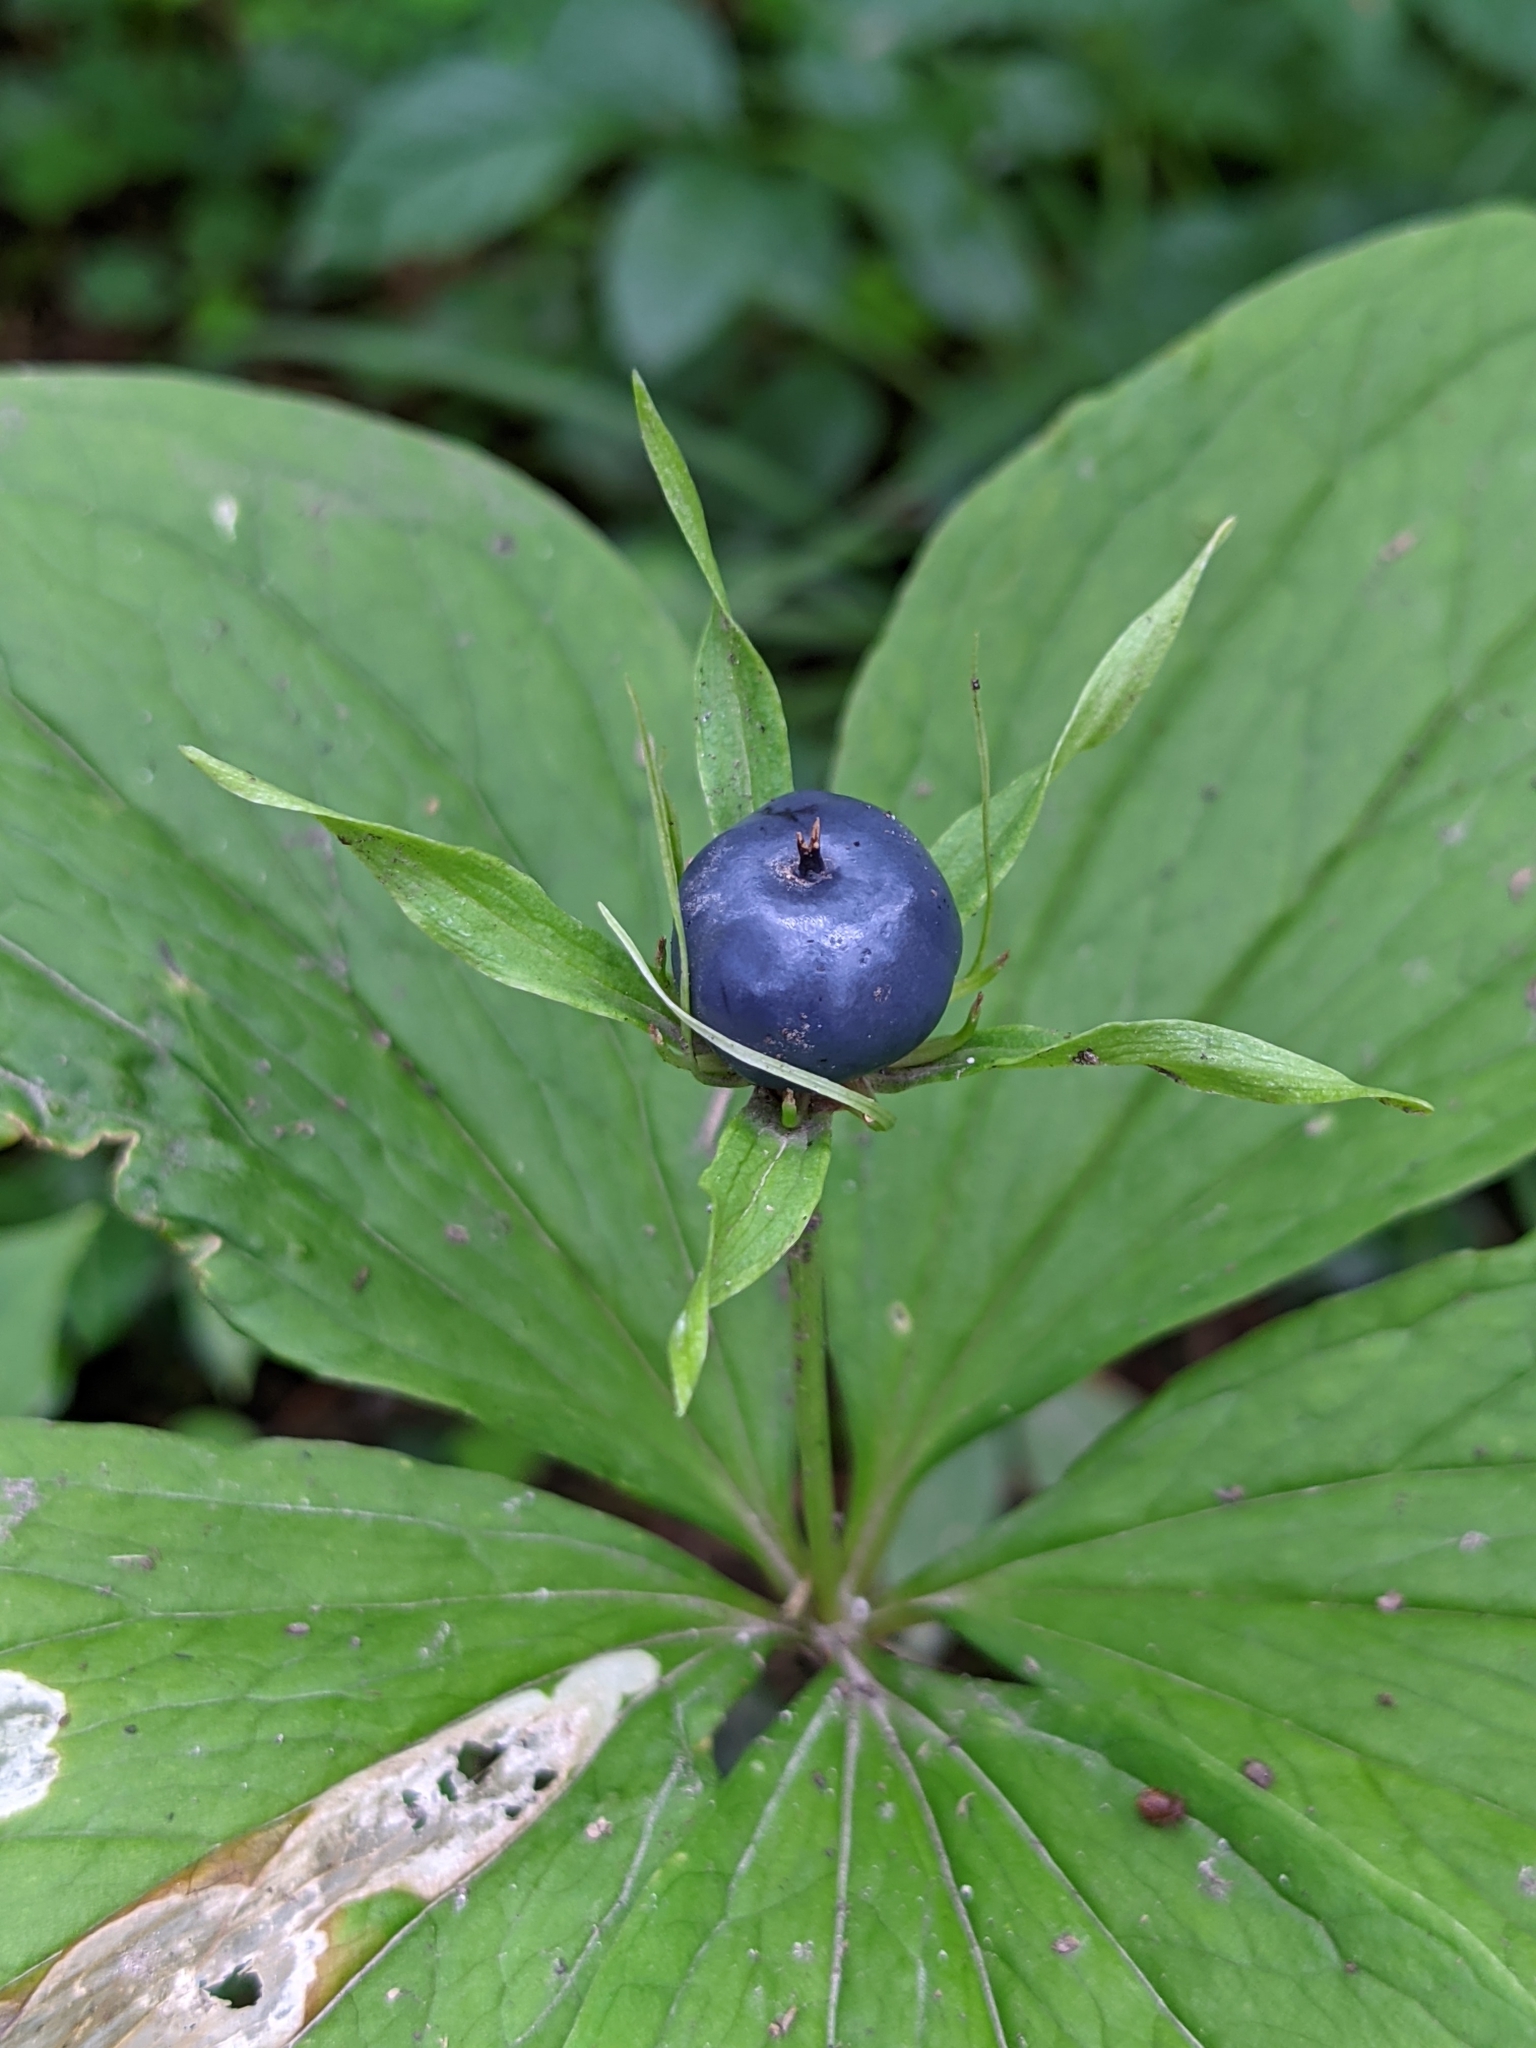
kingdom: Plantae
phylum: Tracheophyta
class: Liliopsida
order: Liliales
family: Melanthiaceae
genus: Paris
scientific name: Paris quadrifolia
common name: Herb-paris
